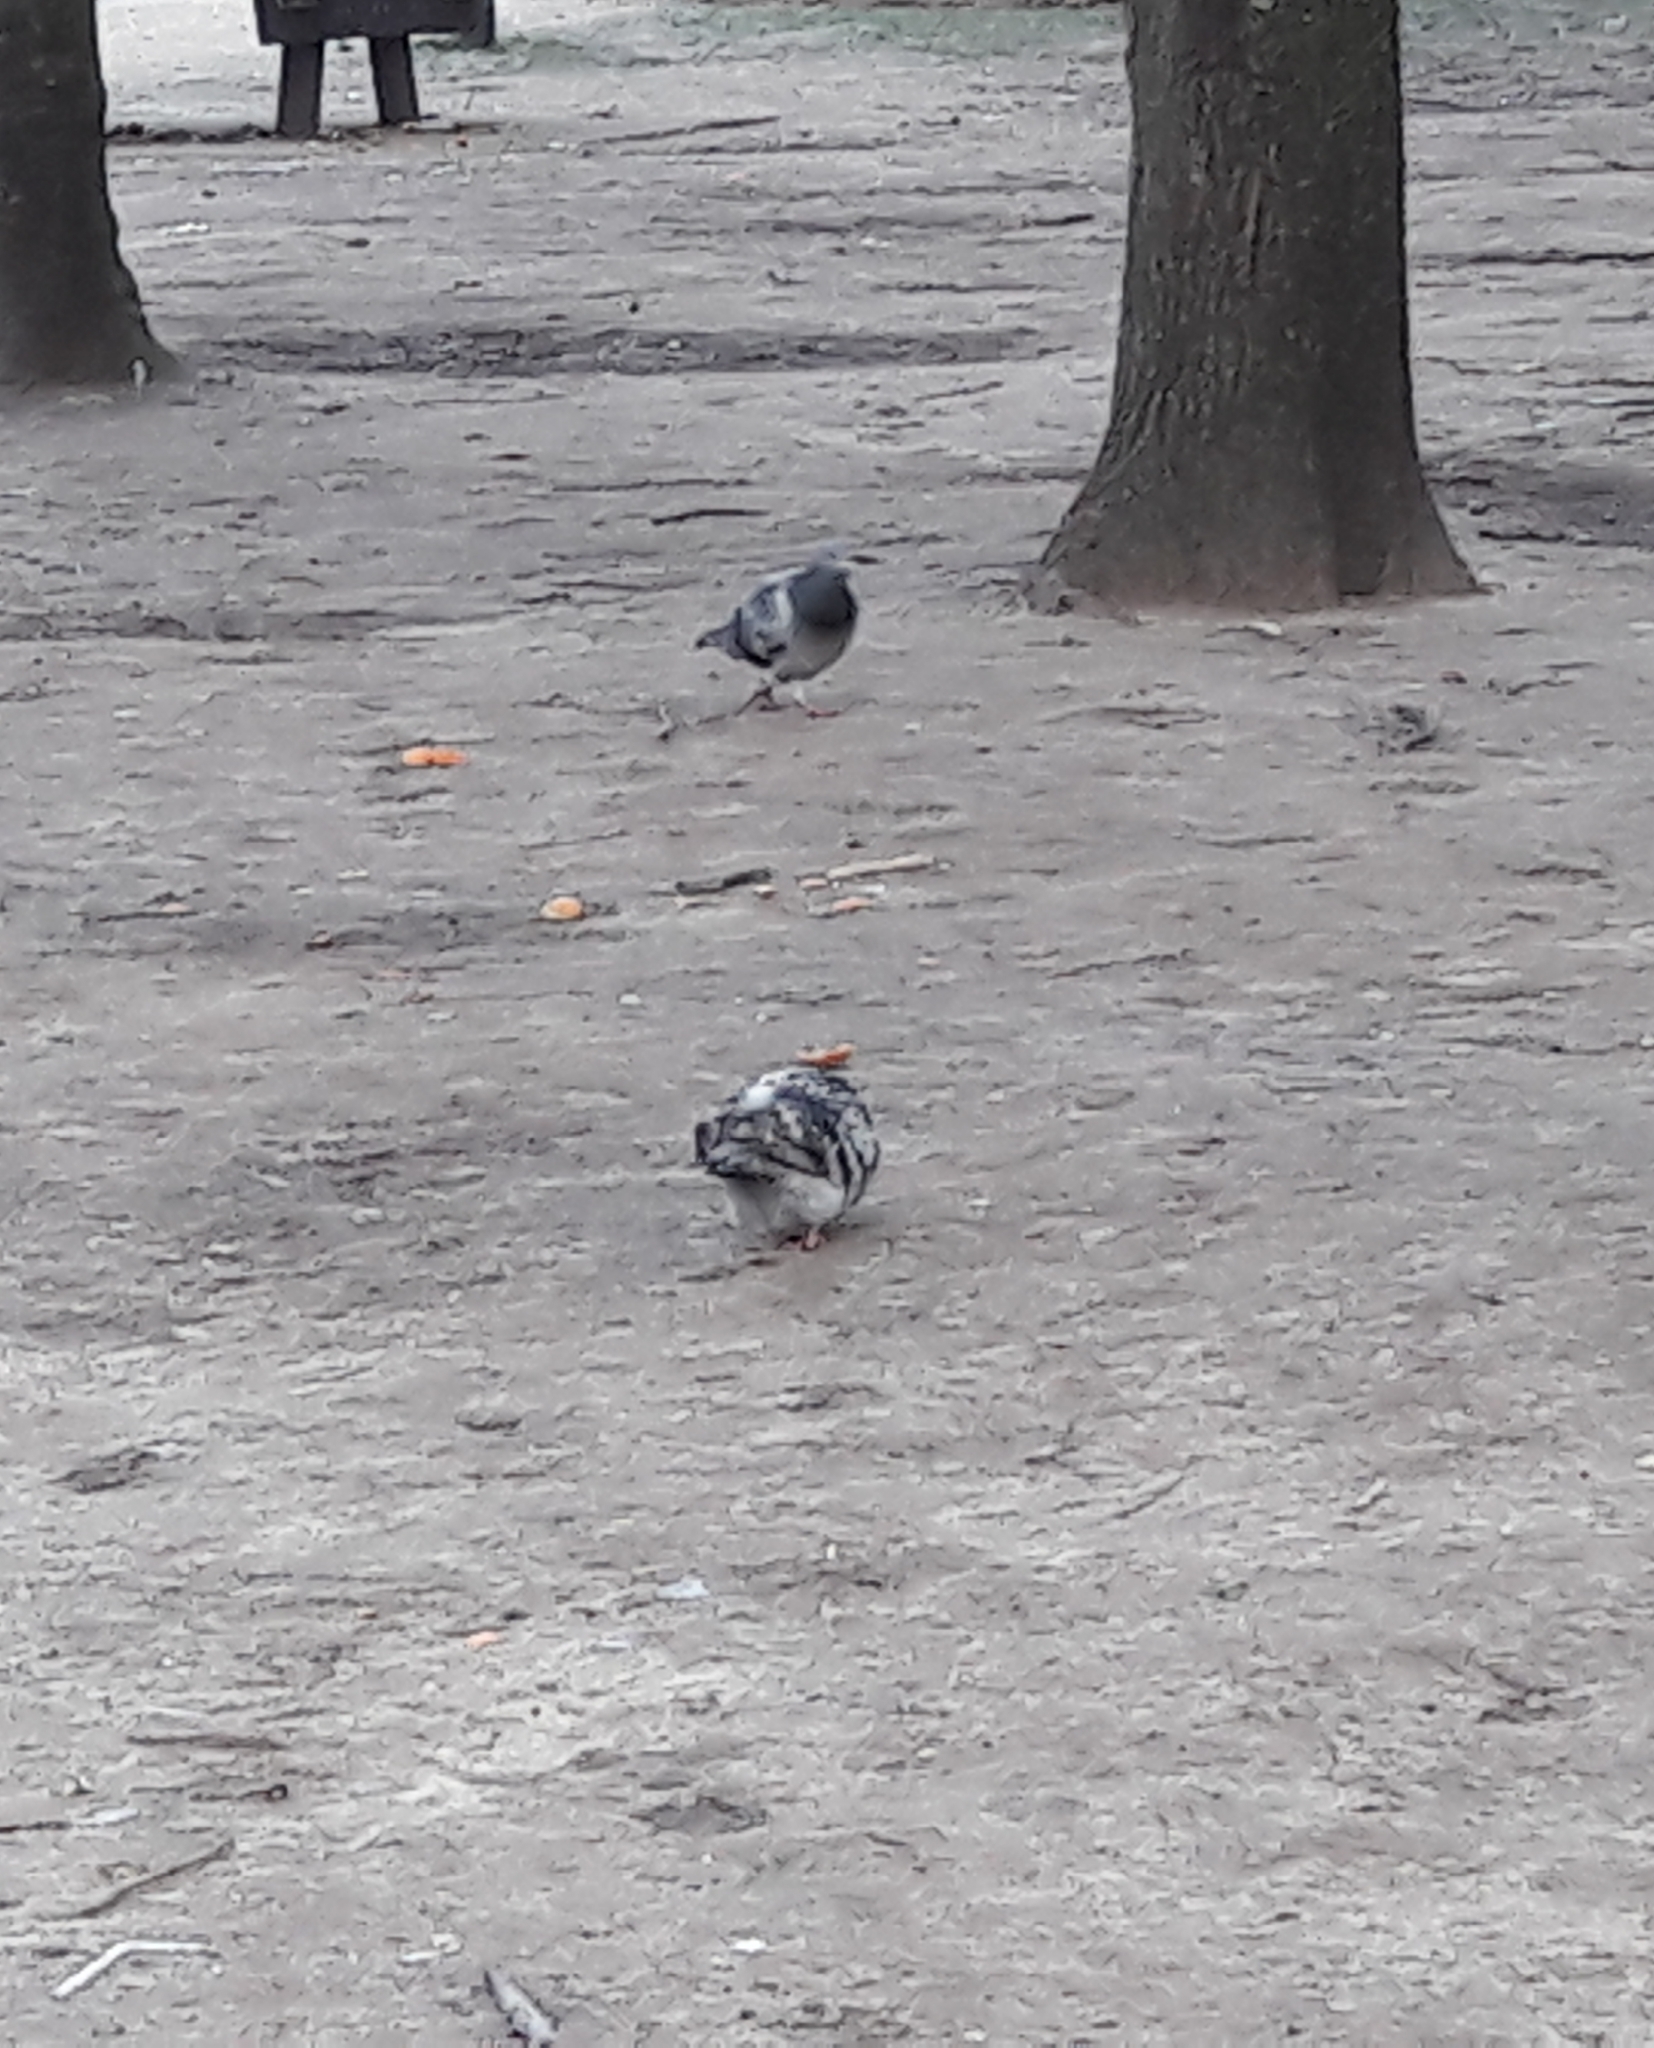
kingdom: Animalia
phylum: Chordata
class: Aves
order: Columbiformes
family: Columbidae
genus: Columba
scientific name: Columba livia
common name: Rock pigeon
